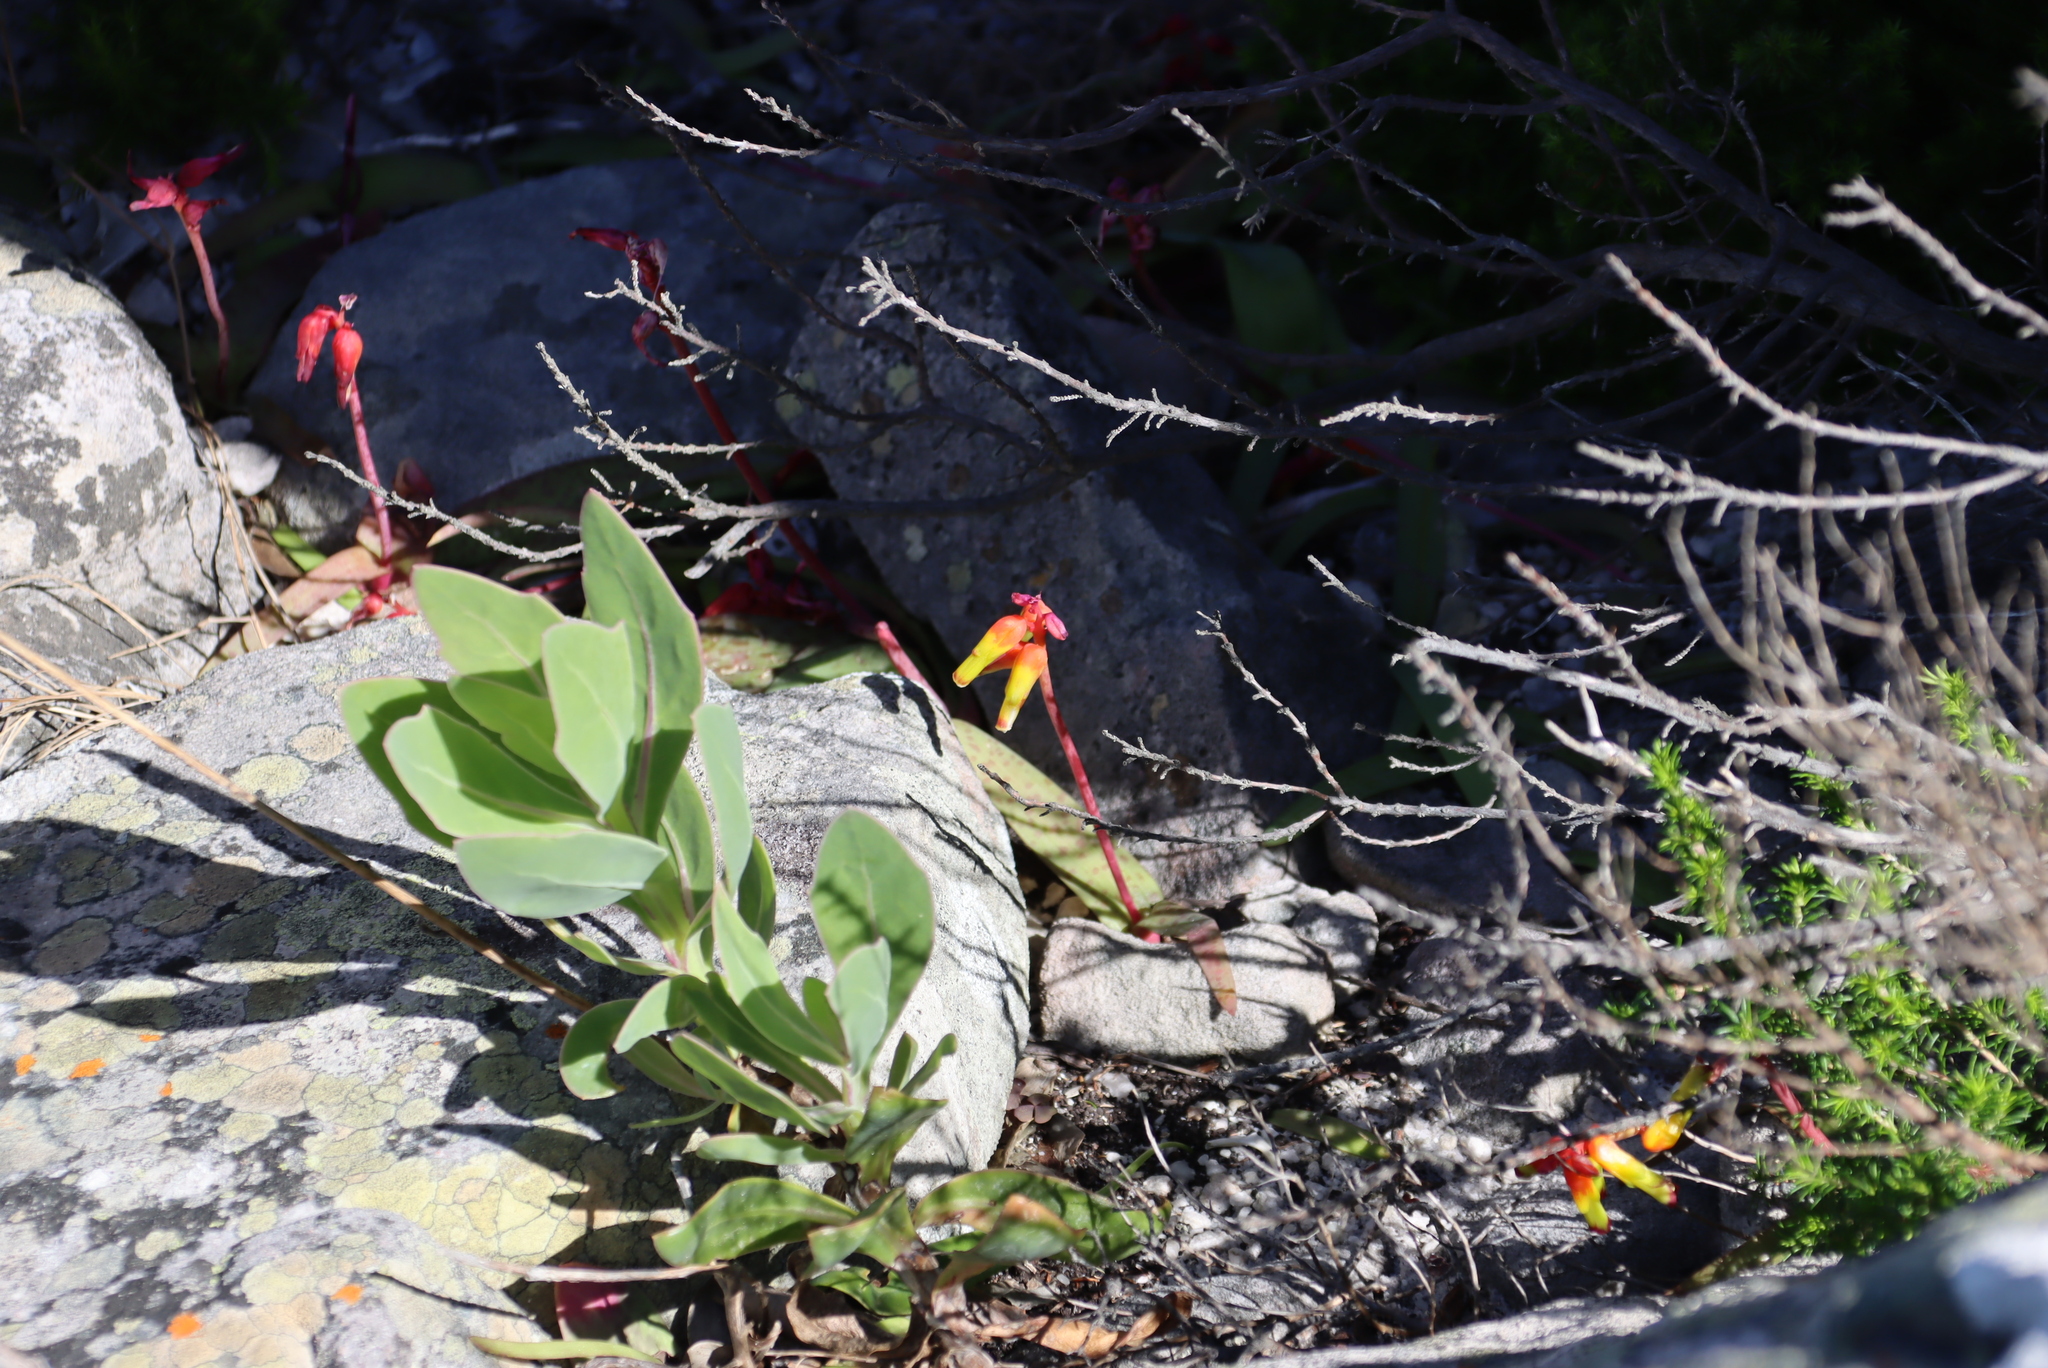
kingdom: Plantae
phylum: Tracheophyta
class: Liliopsida
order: Asparagales
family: Asparagaceae
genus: Lachenalia
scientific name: Lachenalia luteola
